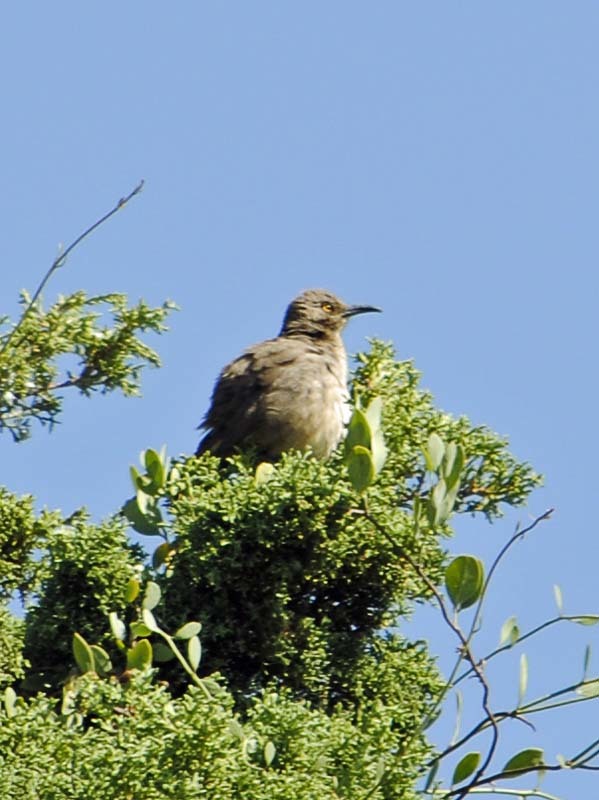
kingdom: Animalia
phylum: Chordata
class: Aves
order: Passeriformes
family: Mimidae
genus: Toxostoma
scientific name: Toxostoma curvirostre
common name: Curve-billed thrasher
